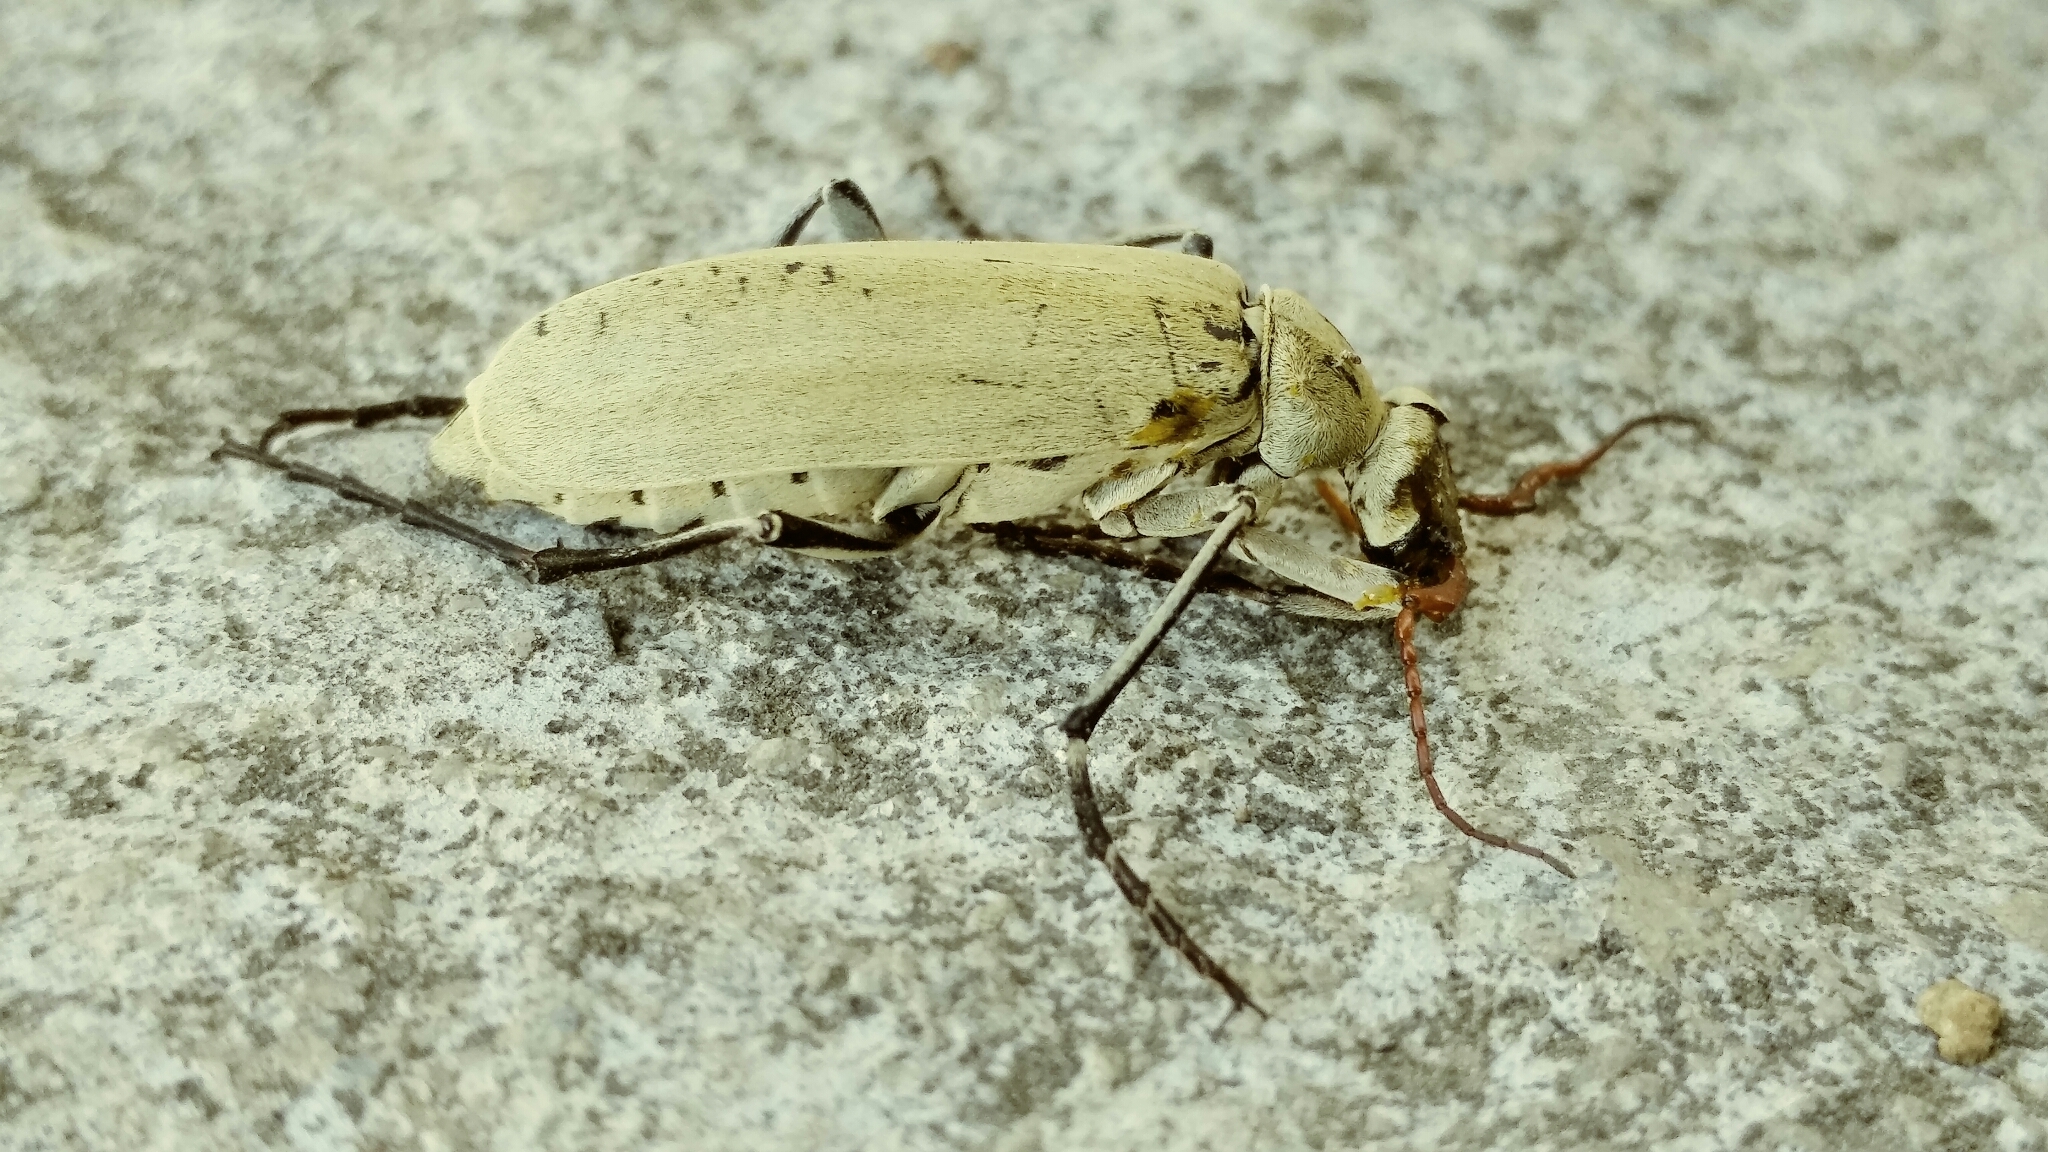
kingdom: Animalia
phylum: Arthropoda
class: Insecta
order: Coleoptera
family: Meloidae
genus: Epicauta
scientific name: Epicauta albida
